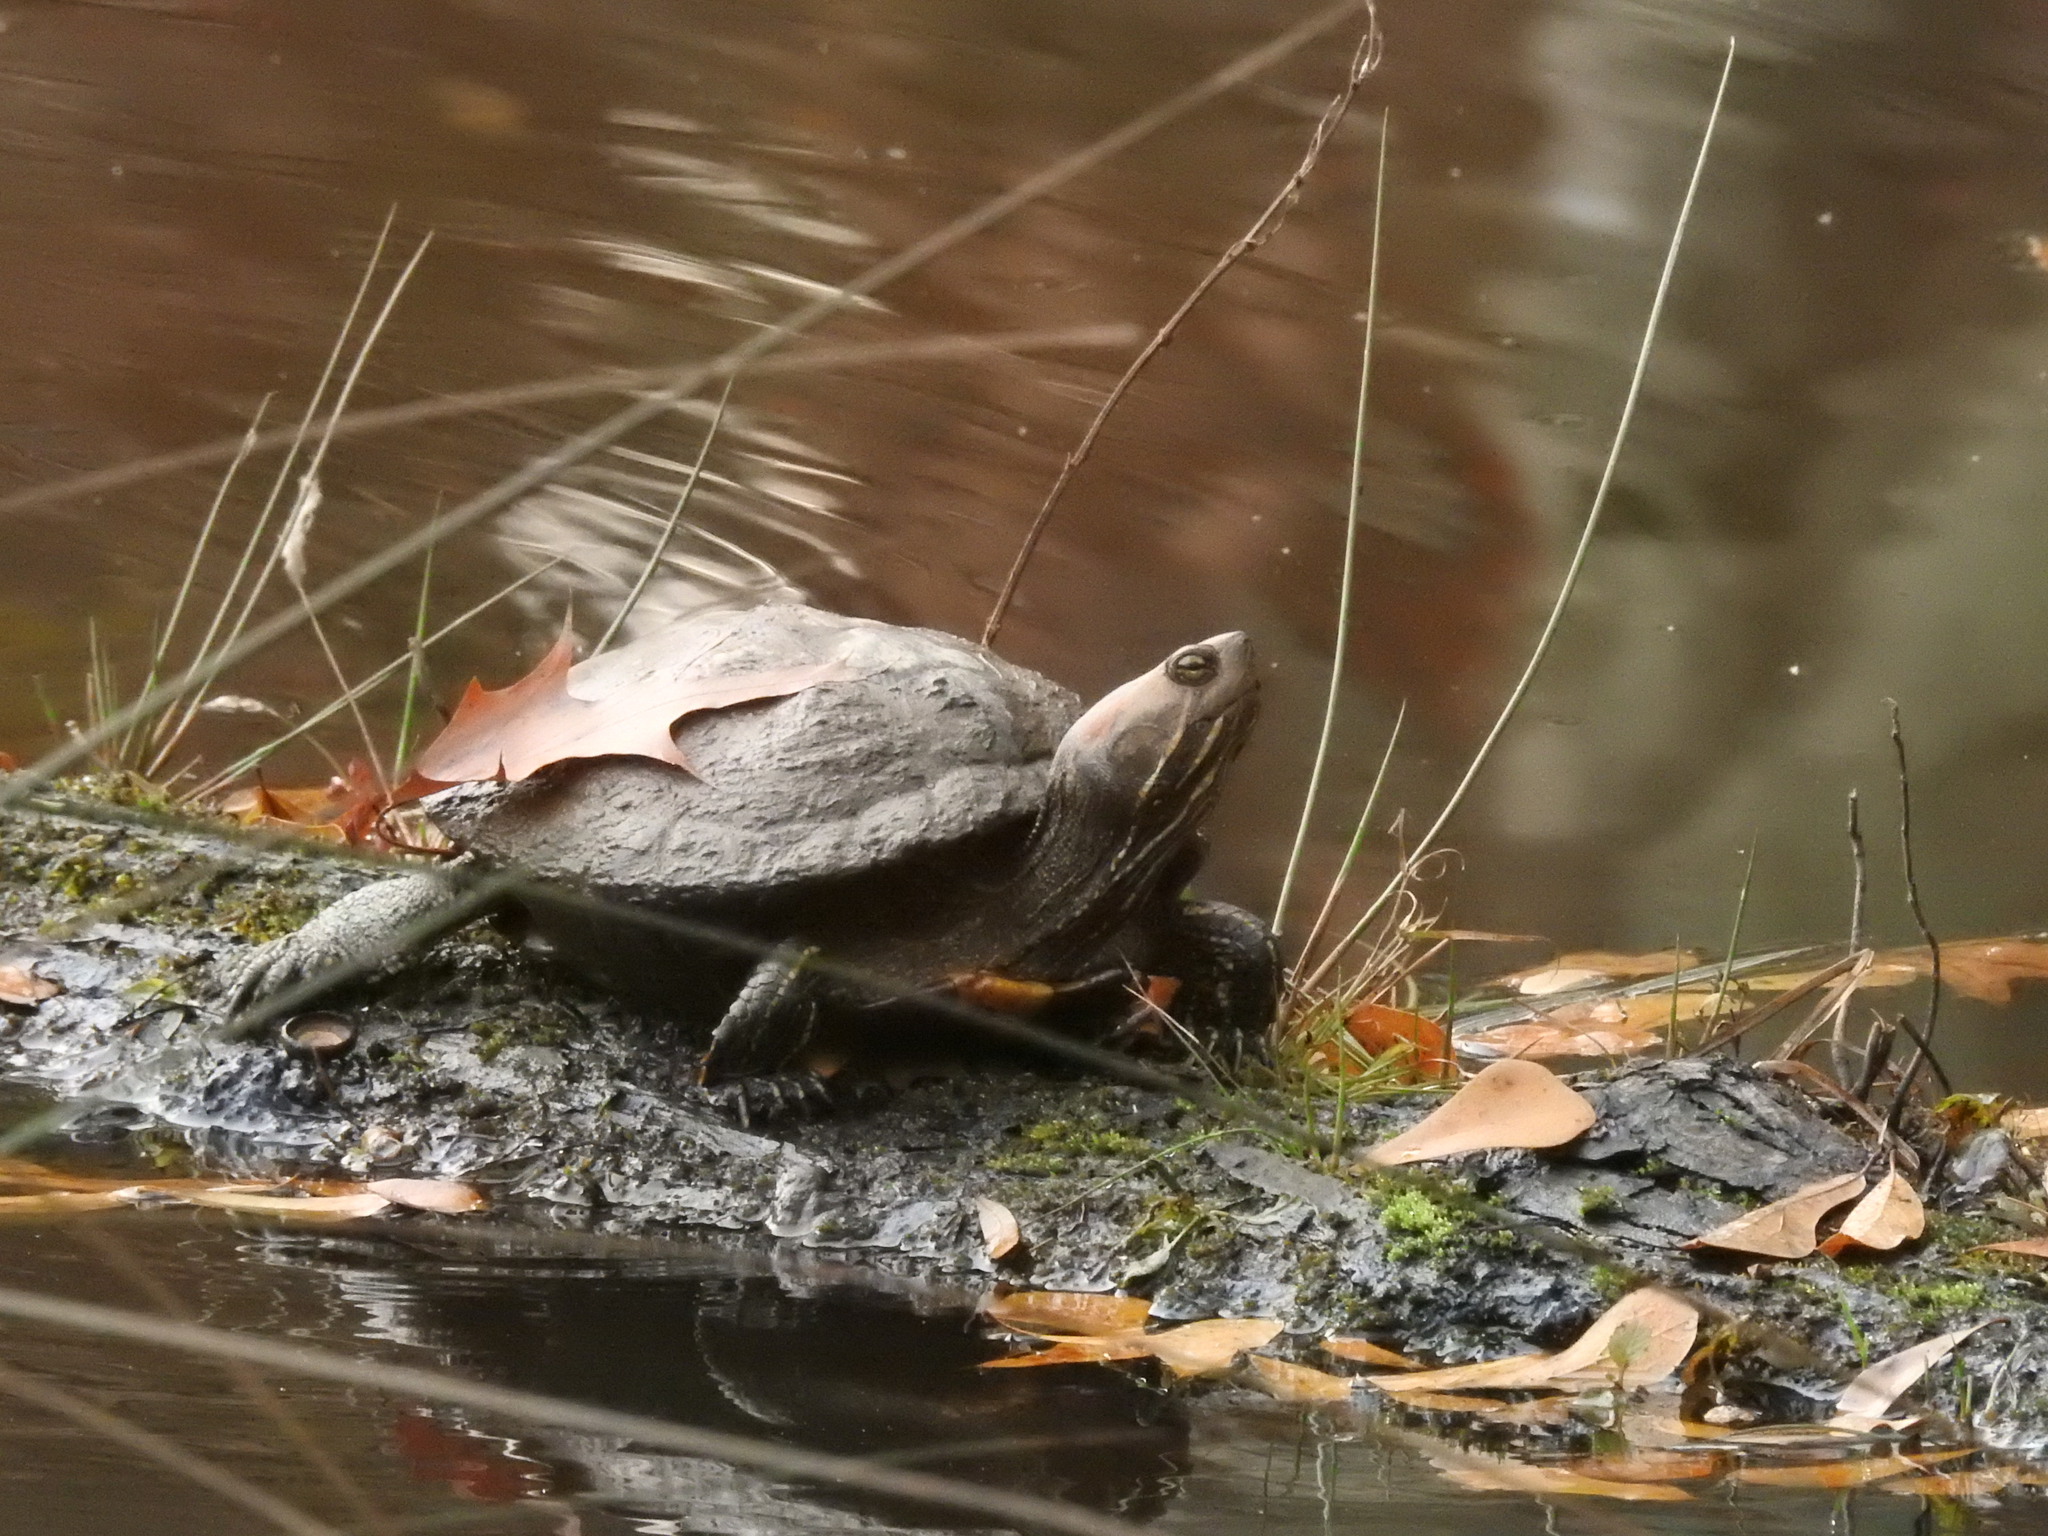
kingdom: Animalia
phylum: Chordata
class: Testudines
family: Emydidae
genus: Trachemys
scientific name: Trachemys scripta
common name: Slider
